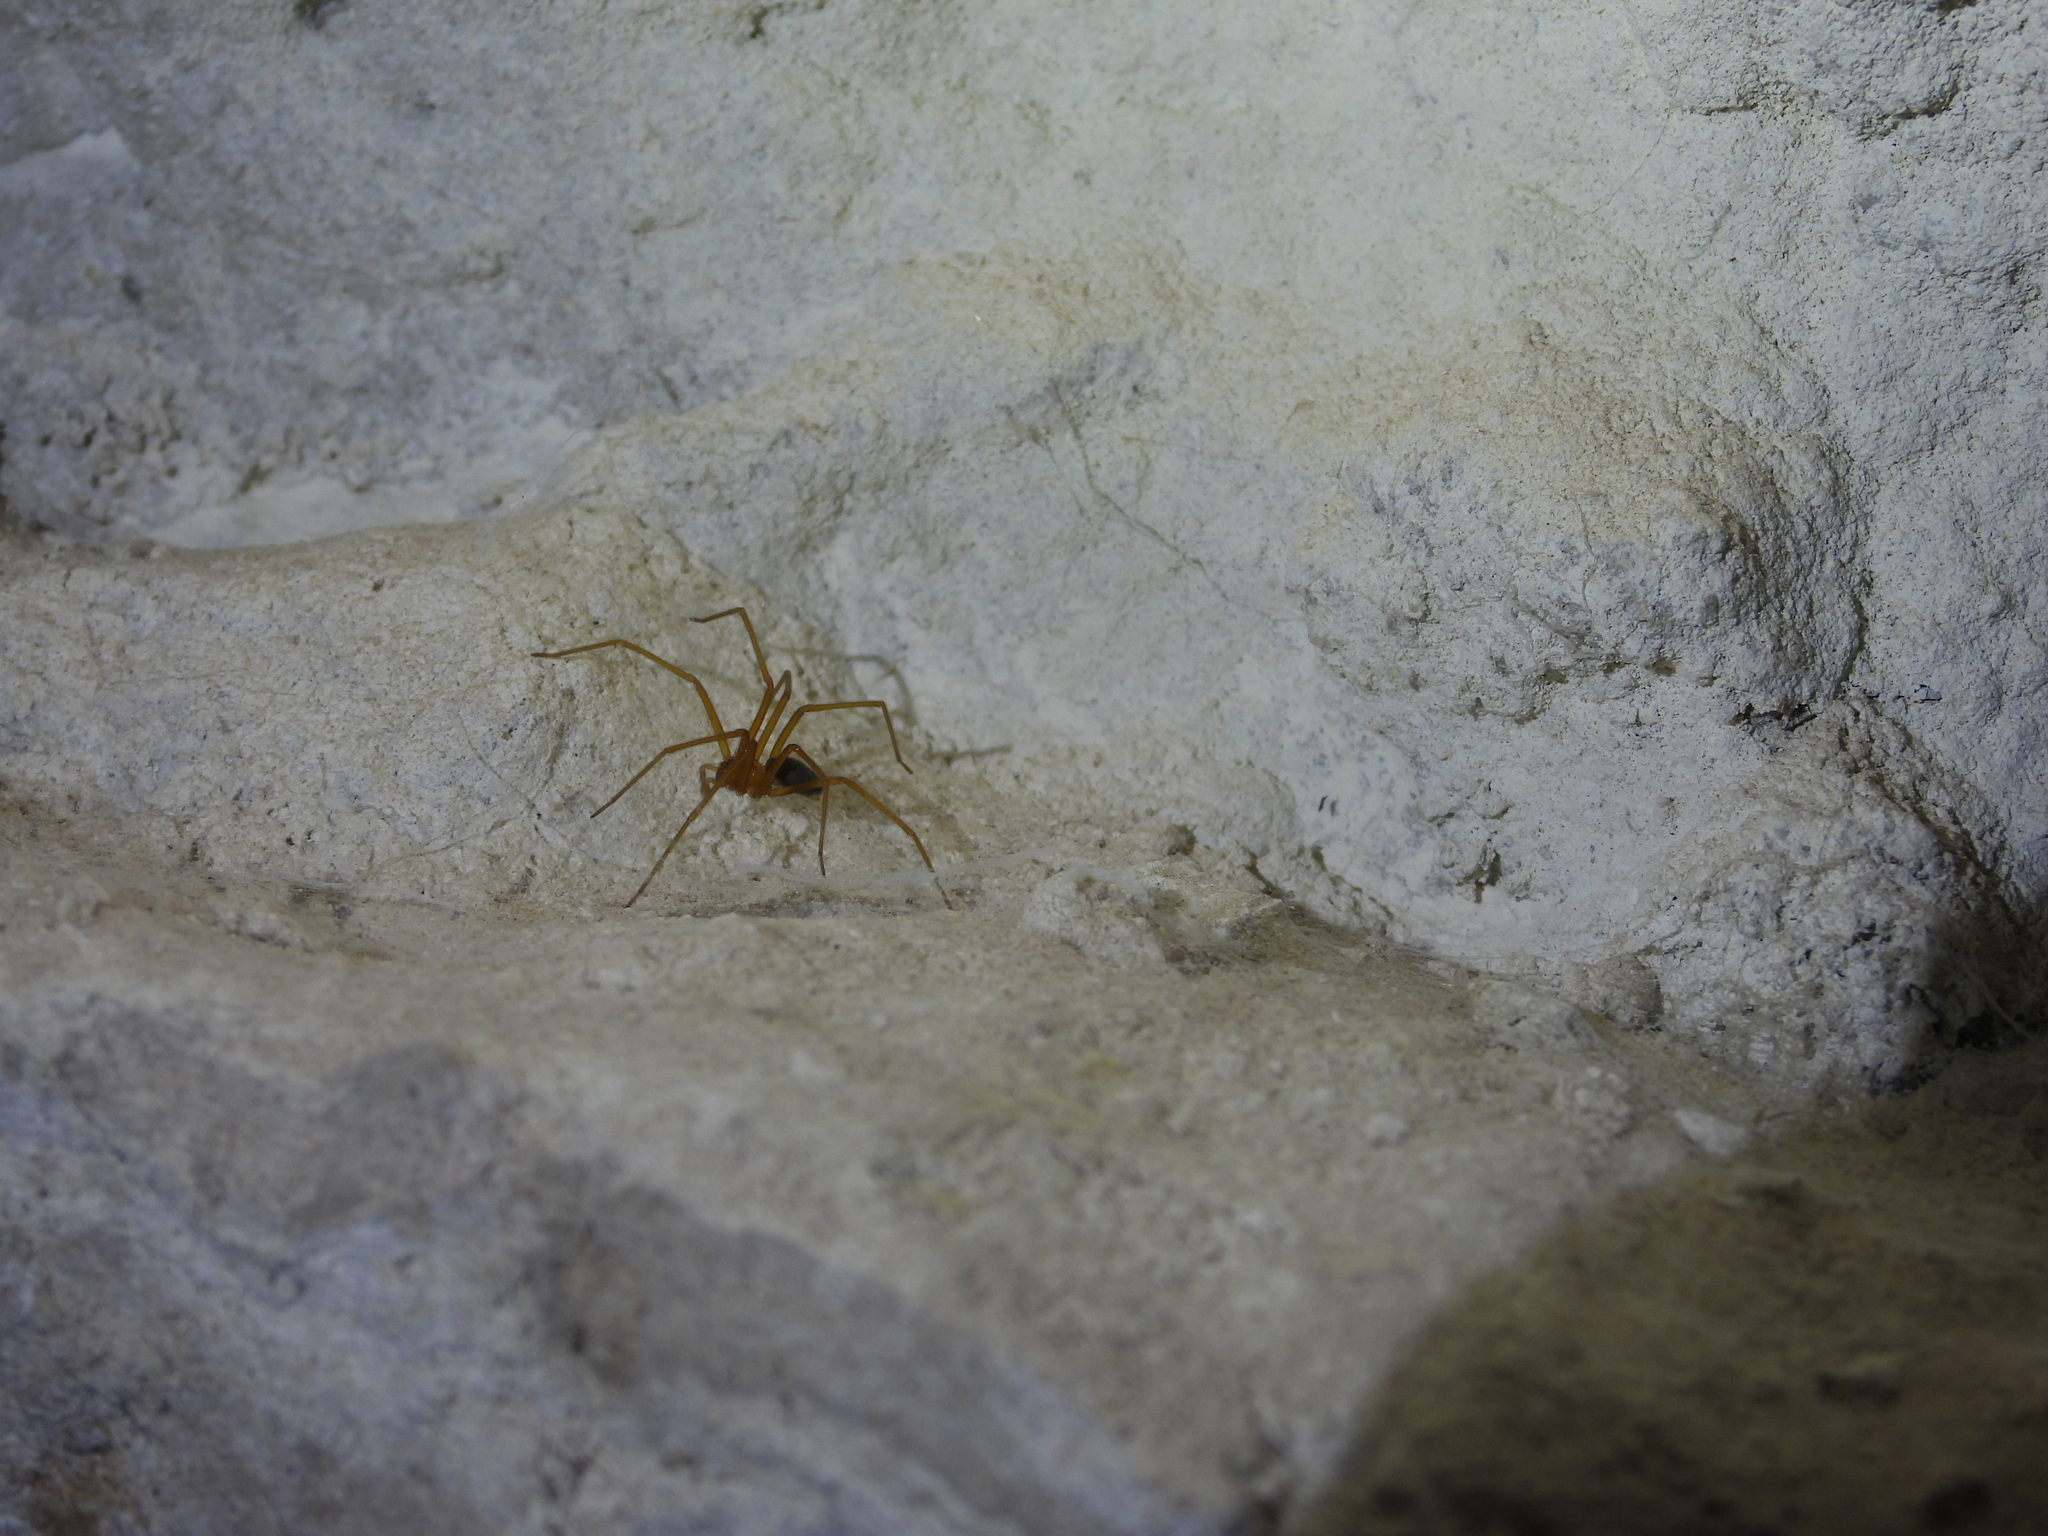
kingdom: Animalia
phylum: Arthropoda
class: Arachnida
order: Araneae
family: Sicariidae
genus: Loxosceles
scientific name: Loxosceles yucatana
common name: Violin spiders
